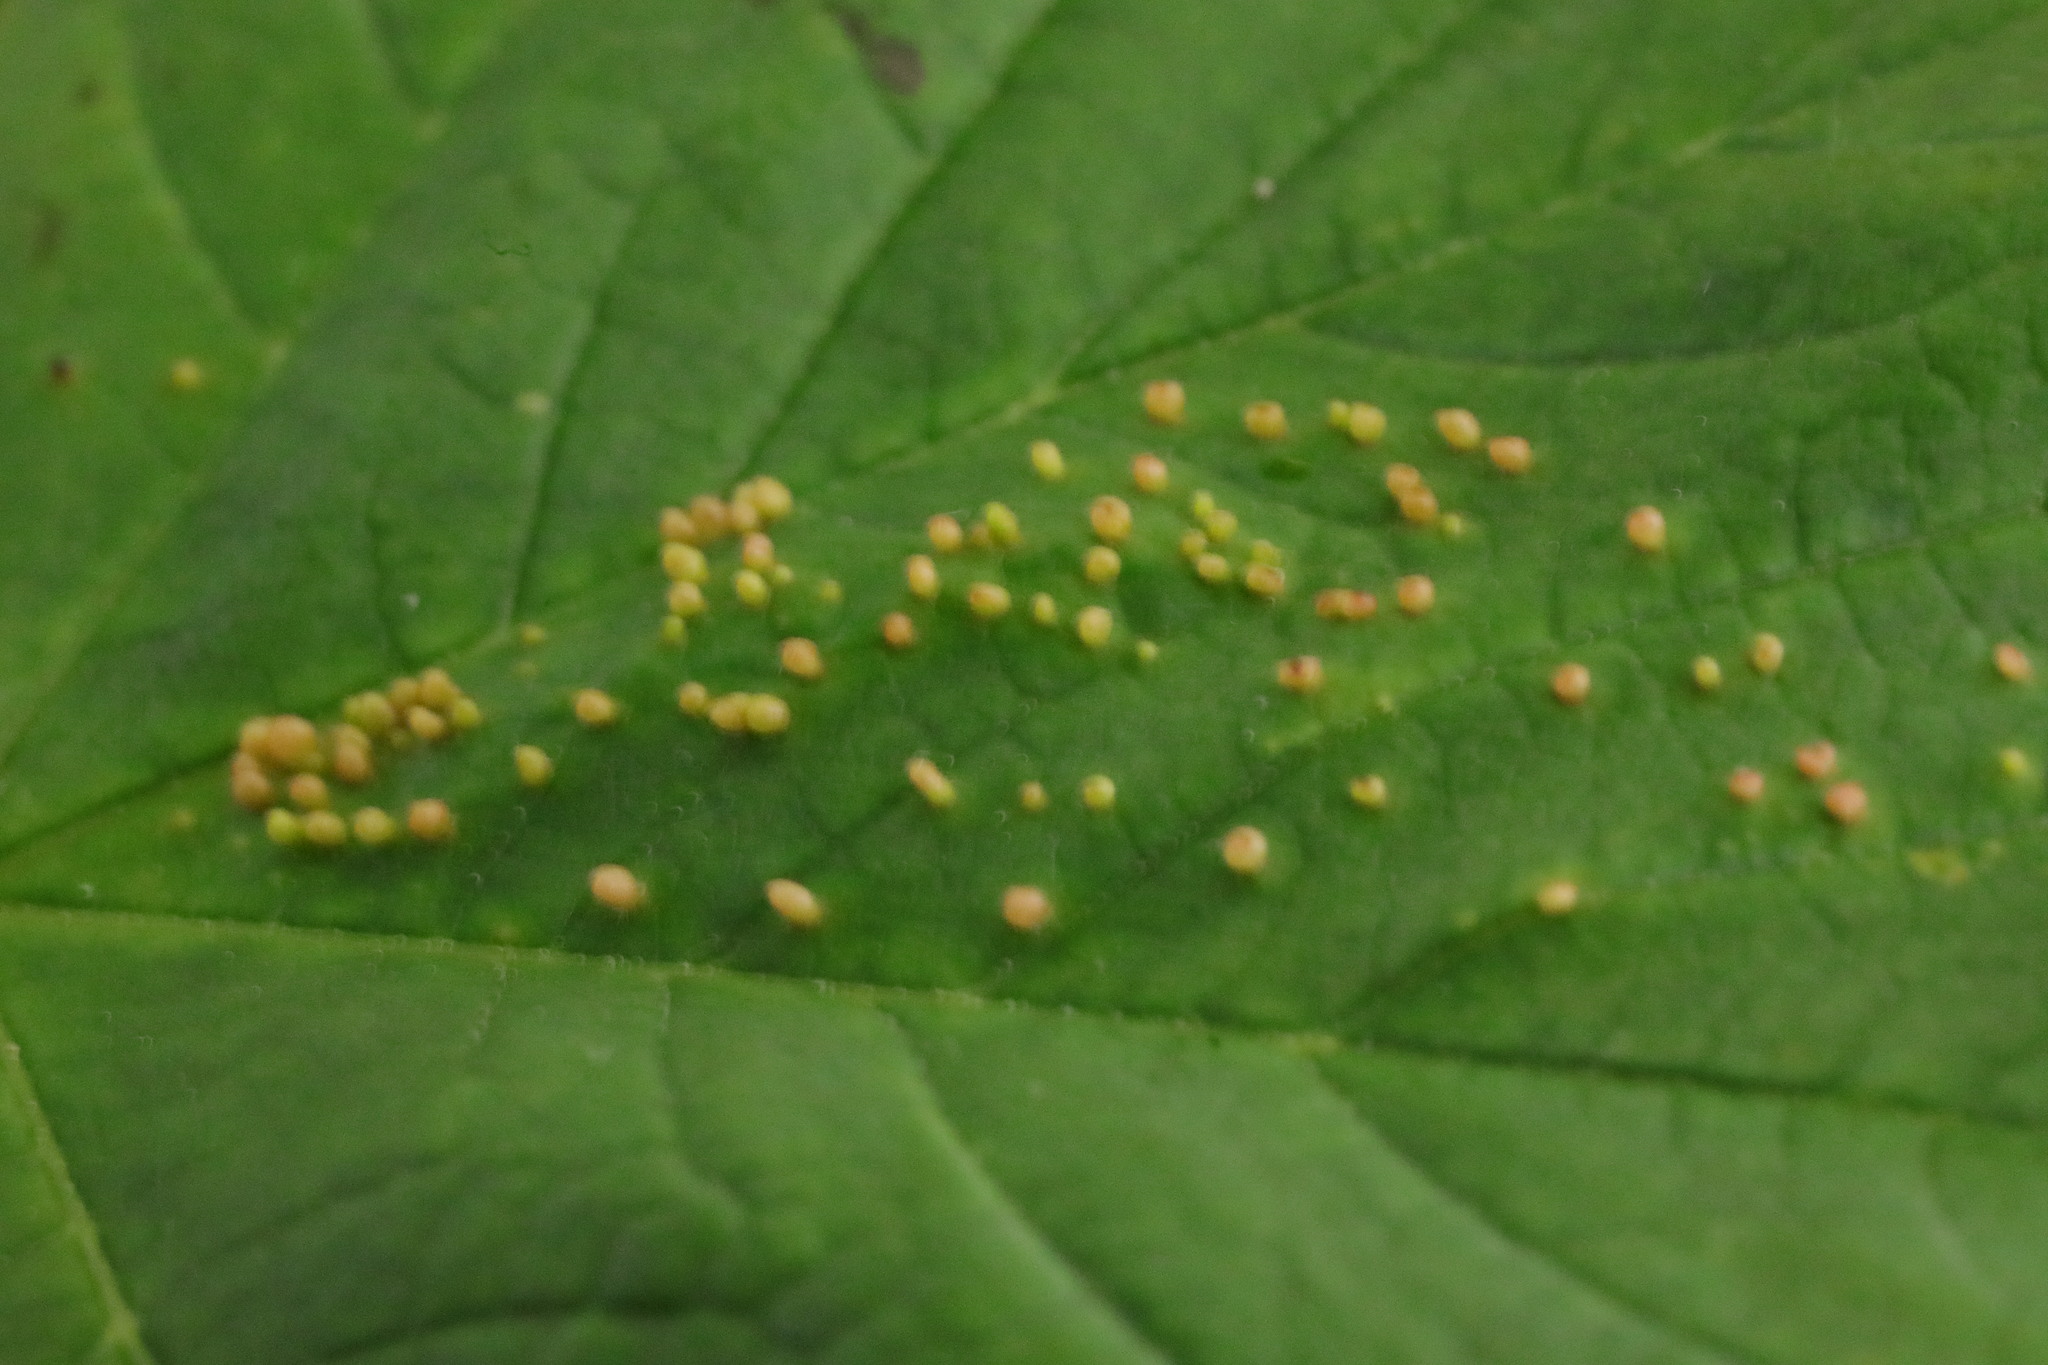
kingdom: Animalia
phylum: Arthropoda
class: Arachnida
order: Trombidiformes
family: Eriophyidae
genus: Aceria
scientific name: Aceria cephaloneus
